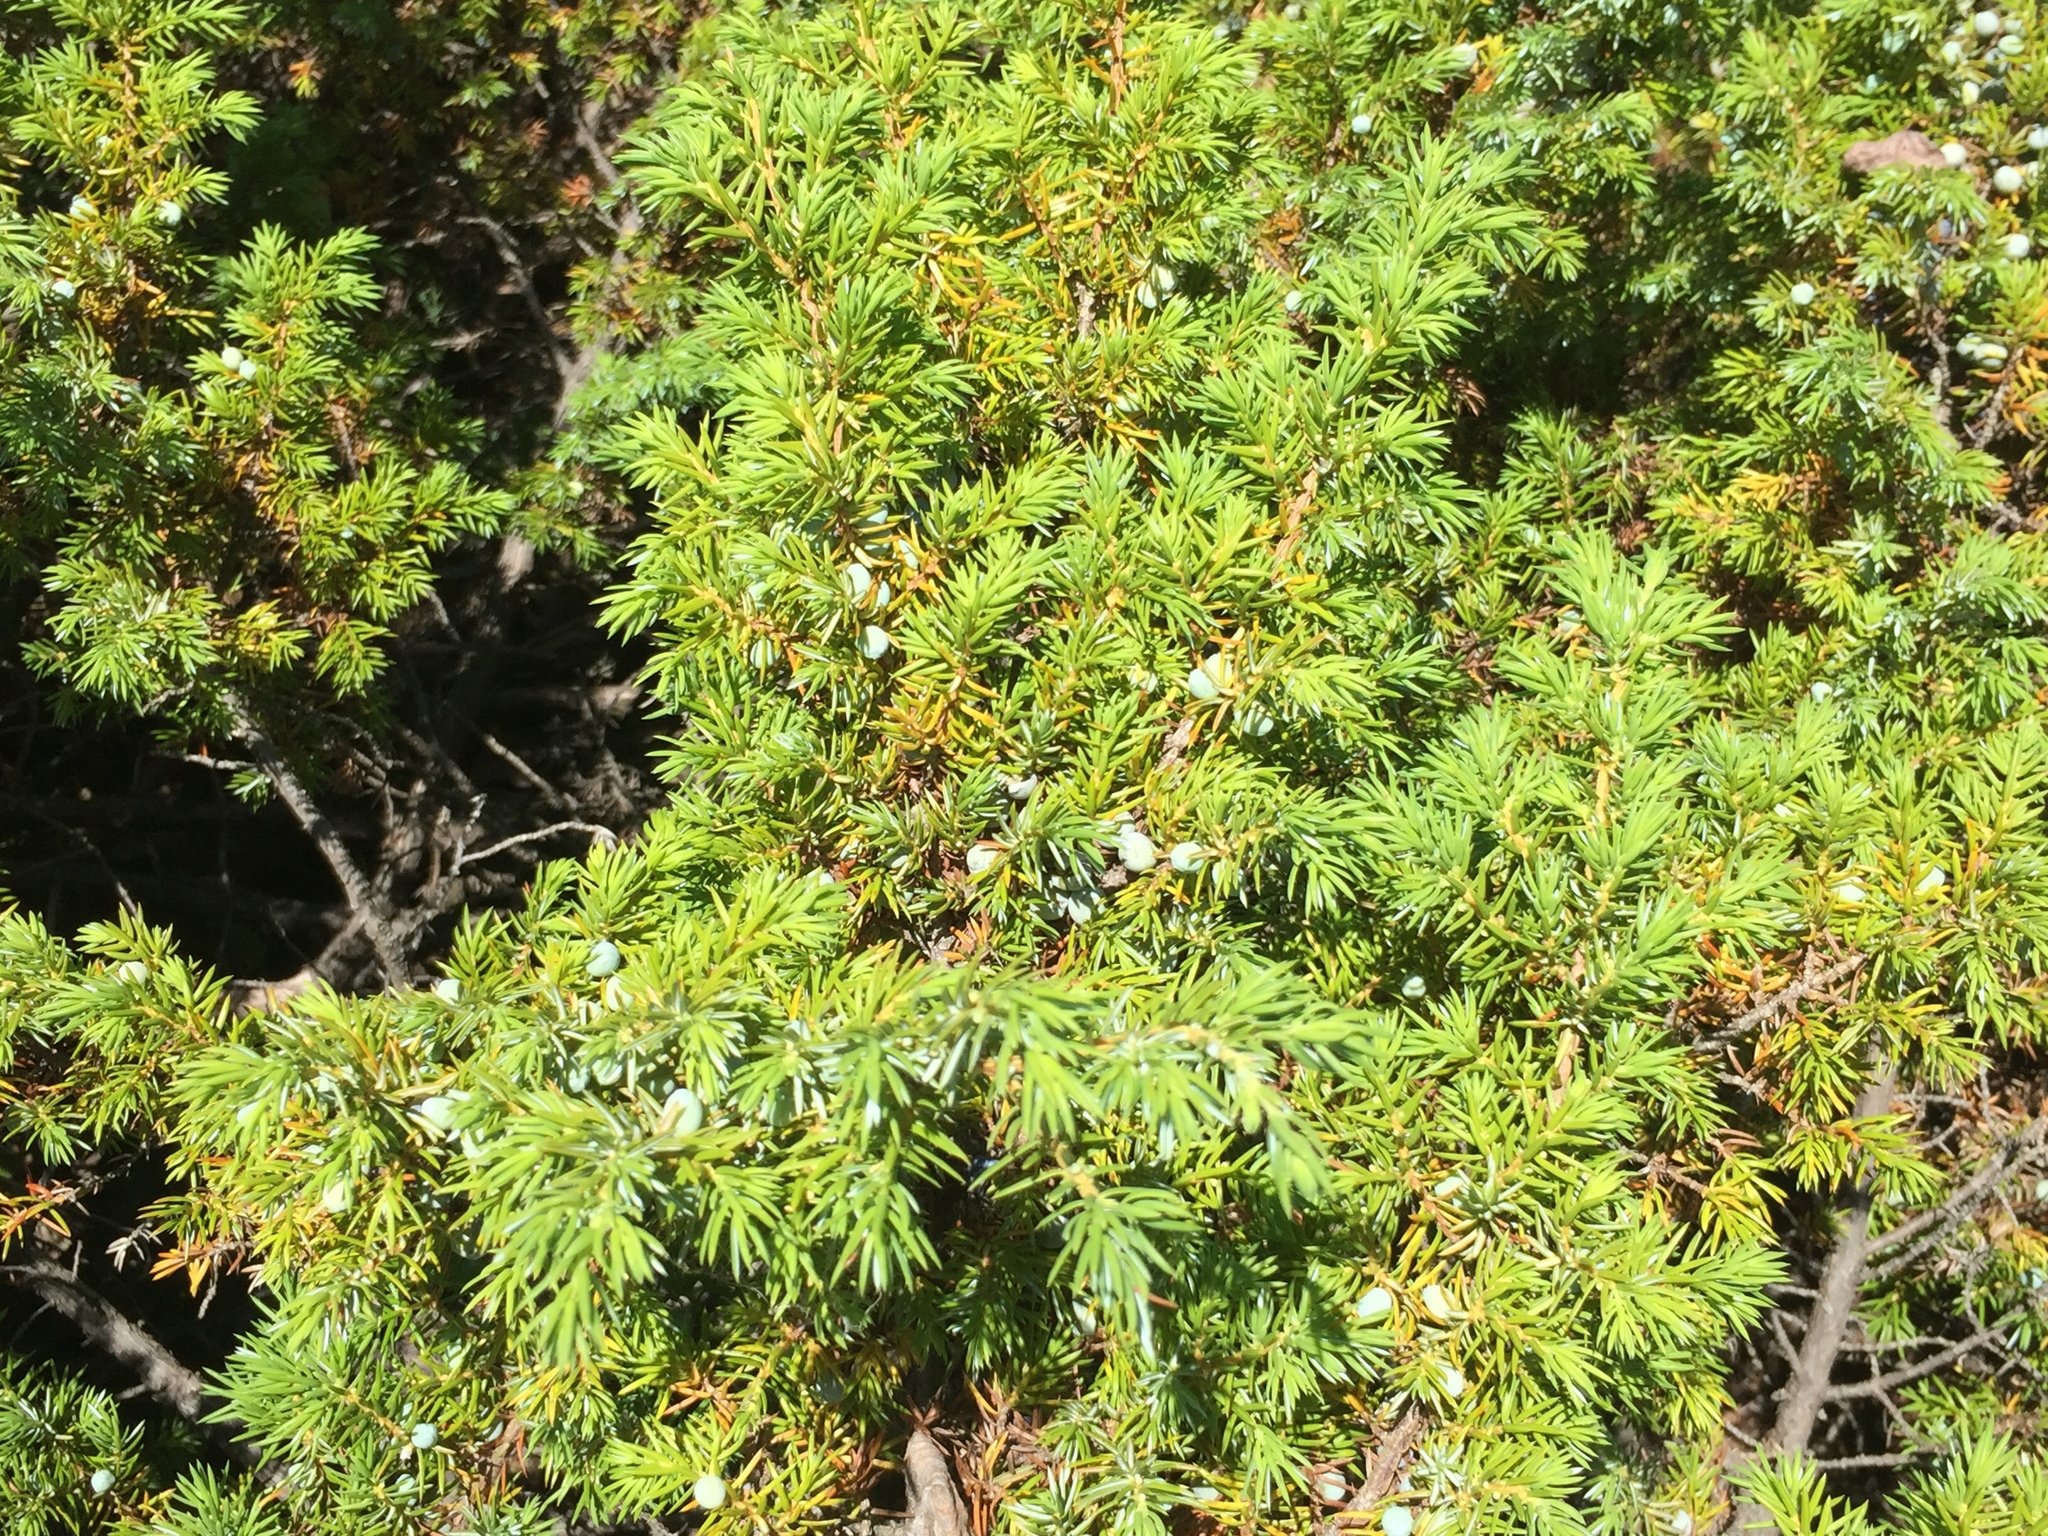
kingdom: Plantae
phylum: Tracheophyta
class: Pinopsida
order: Pinales
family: Cupressaceae
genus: Juniperus
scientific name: Juniperus communis
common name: Common juniper
